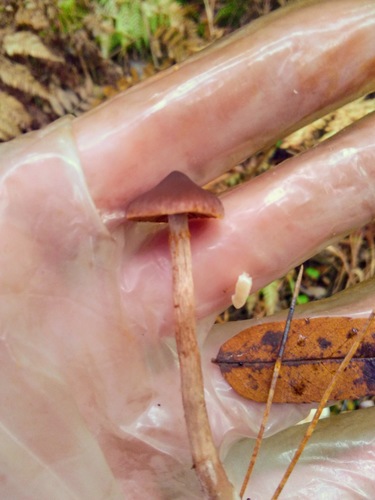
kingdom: Fungi
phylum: Basidiomycota
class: Agaricomycetes
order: Agaricales
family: Cortinariaceae
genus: Cortinarius
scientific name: Cortinarius
